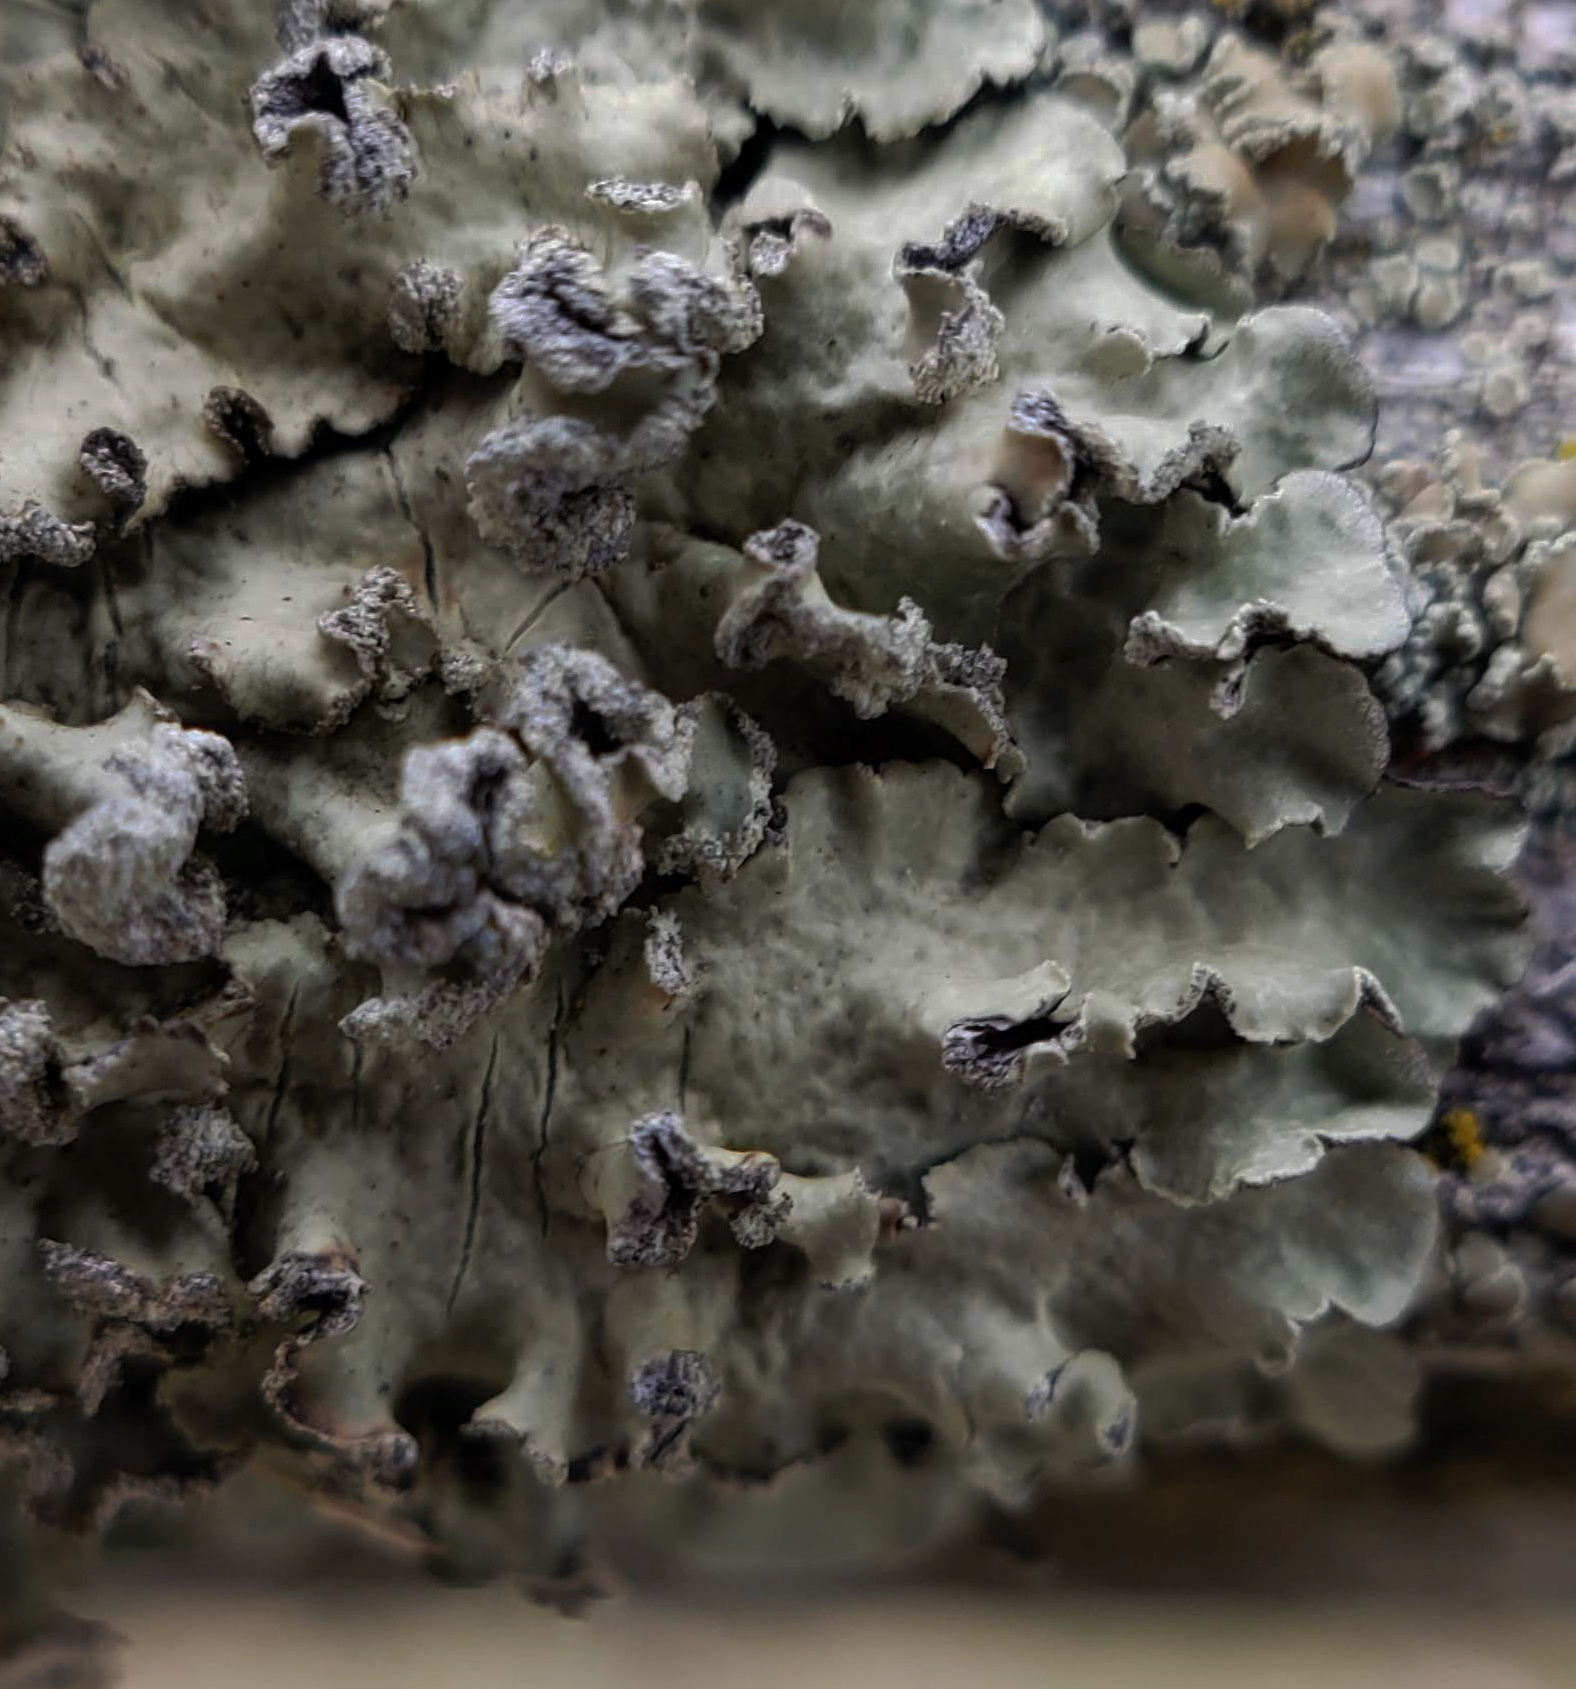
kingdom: Fungi
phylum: Ascomycota
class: Lecanoromycetes
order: Lecanorales
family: Parmeliaceae
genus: Flavopunctelia
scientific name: Flavopunctelia soredica
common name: Powder-edged speckled greenshield
